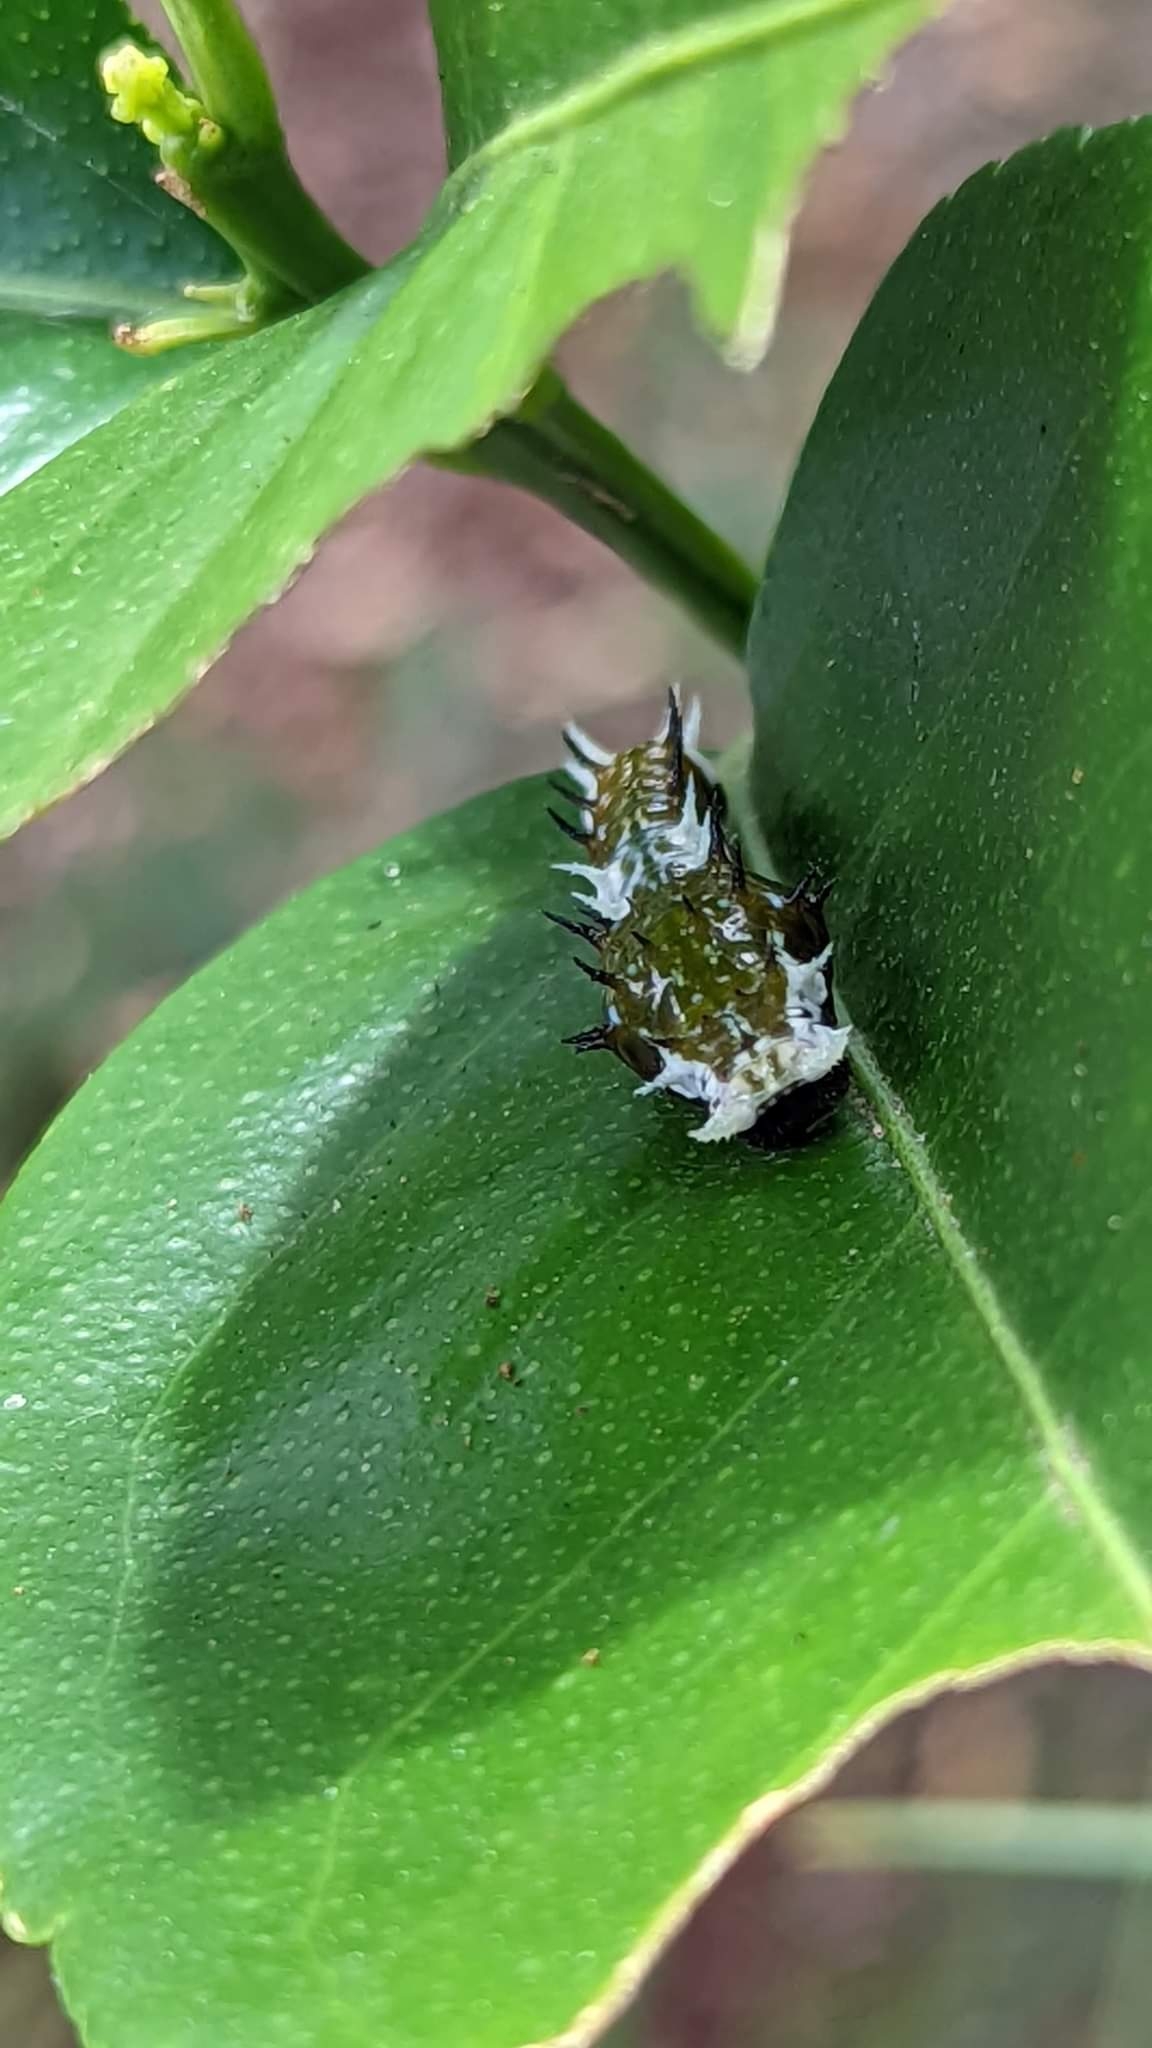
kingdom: Animalia
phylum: Arthropoda
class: Insecta
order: Lepidoptera
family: Papilionidae
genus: Papilio
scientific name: Papilio aegeus
